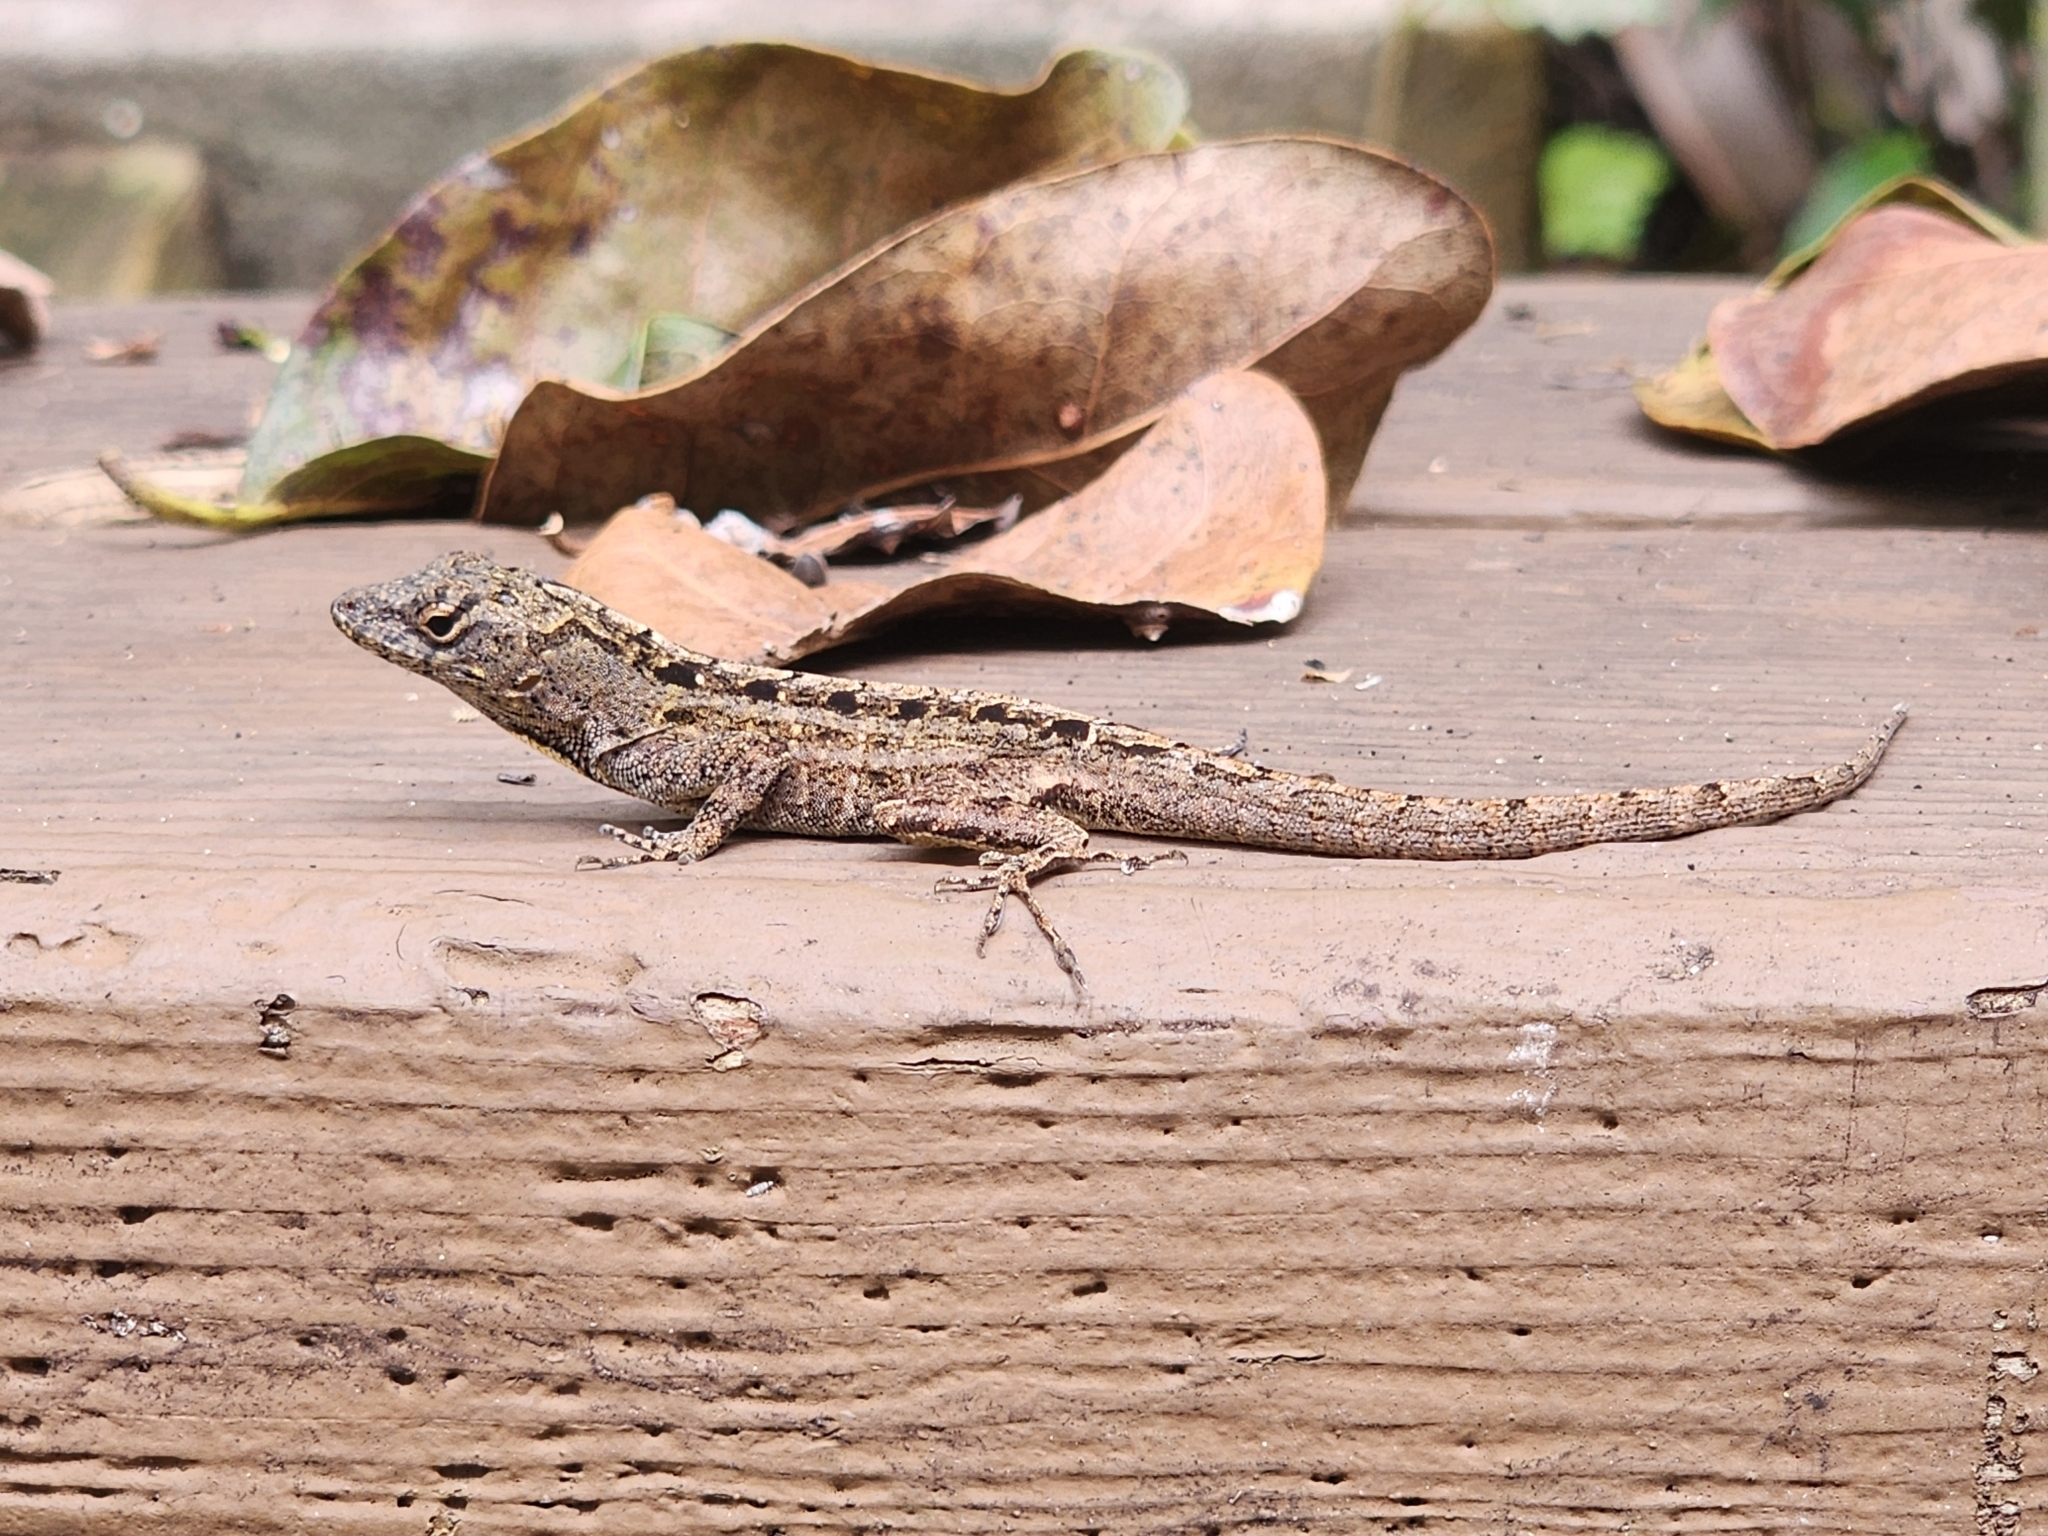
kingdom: Animalia
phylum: Chordata
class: Squamata
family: Dactyloidae
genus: Anolis
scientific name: Anolis sagrei
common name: Brown anole
